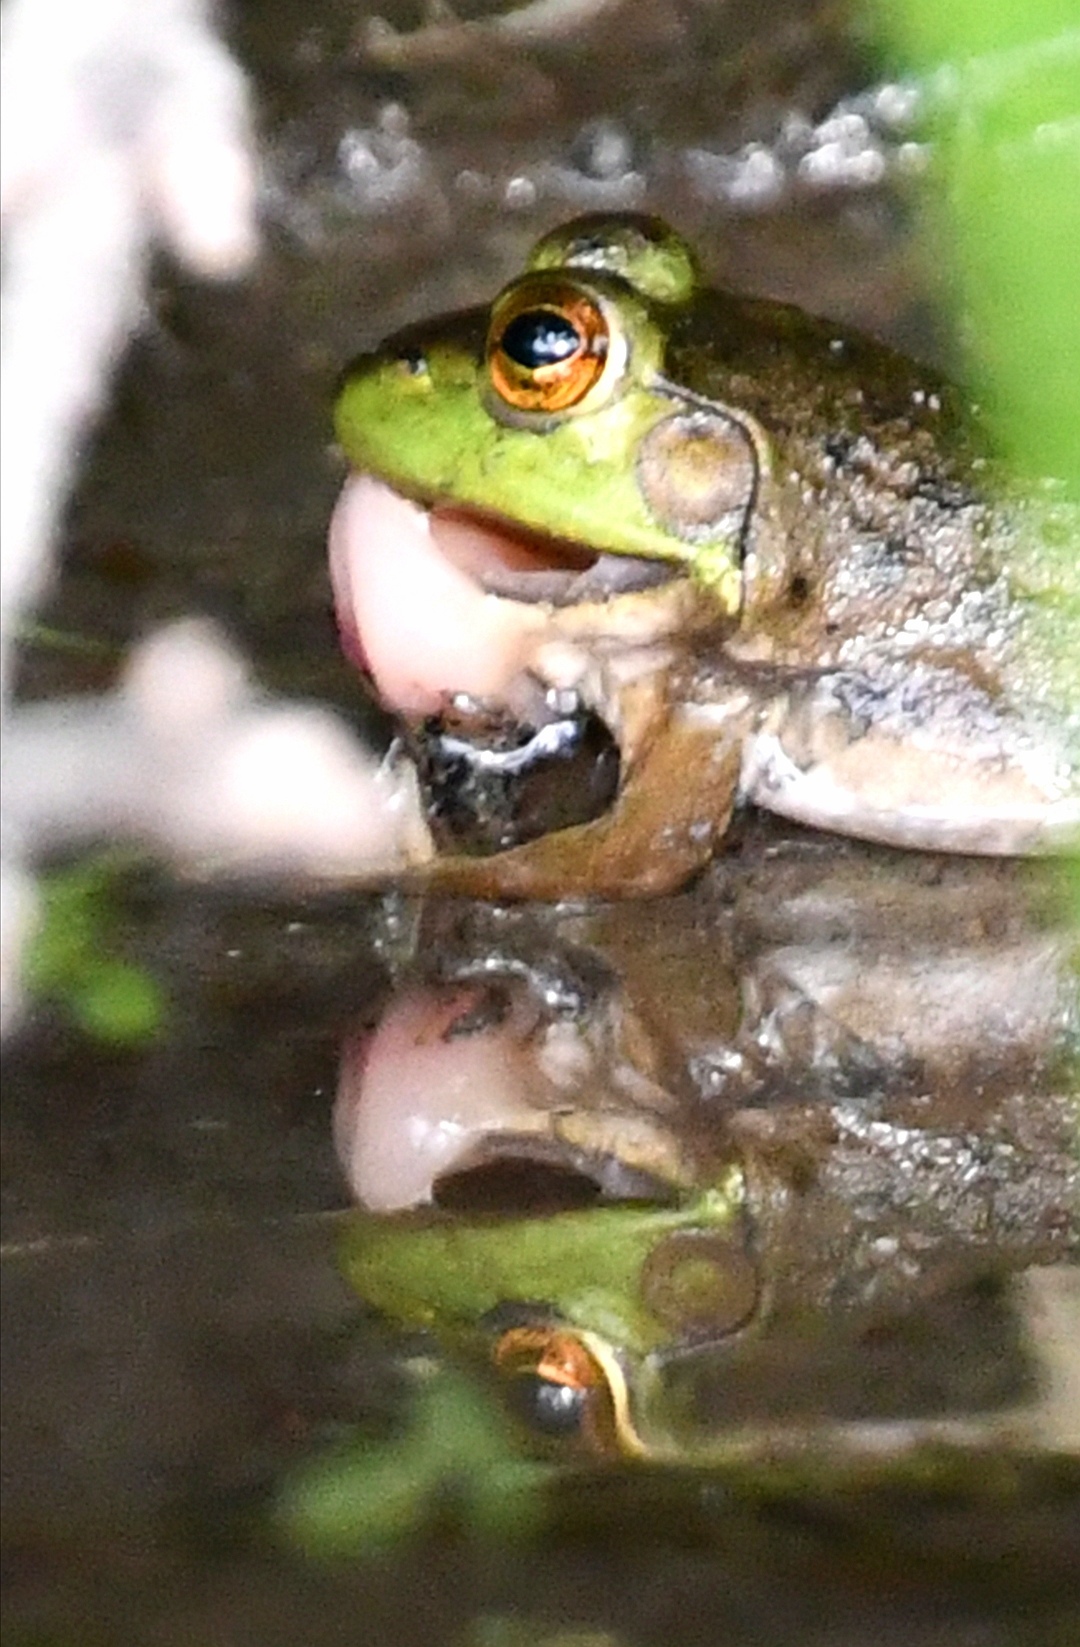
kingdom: Animalia
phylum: Chordata
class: Amphibia
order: Anura
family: Ranidae
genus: Lithobates
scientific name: Lithobates catesbeianus
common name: American bullfrog
